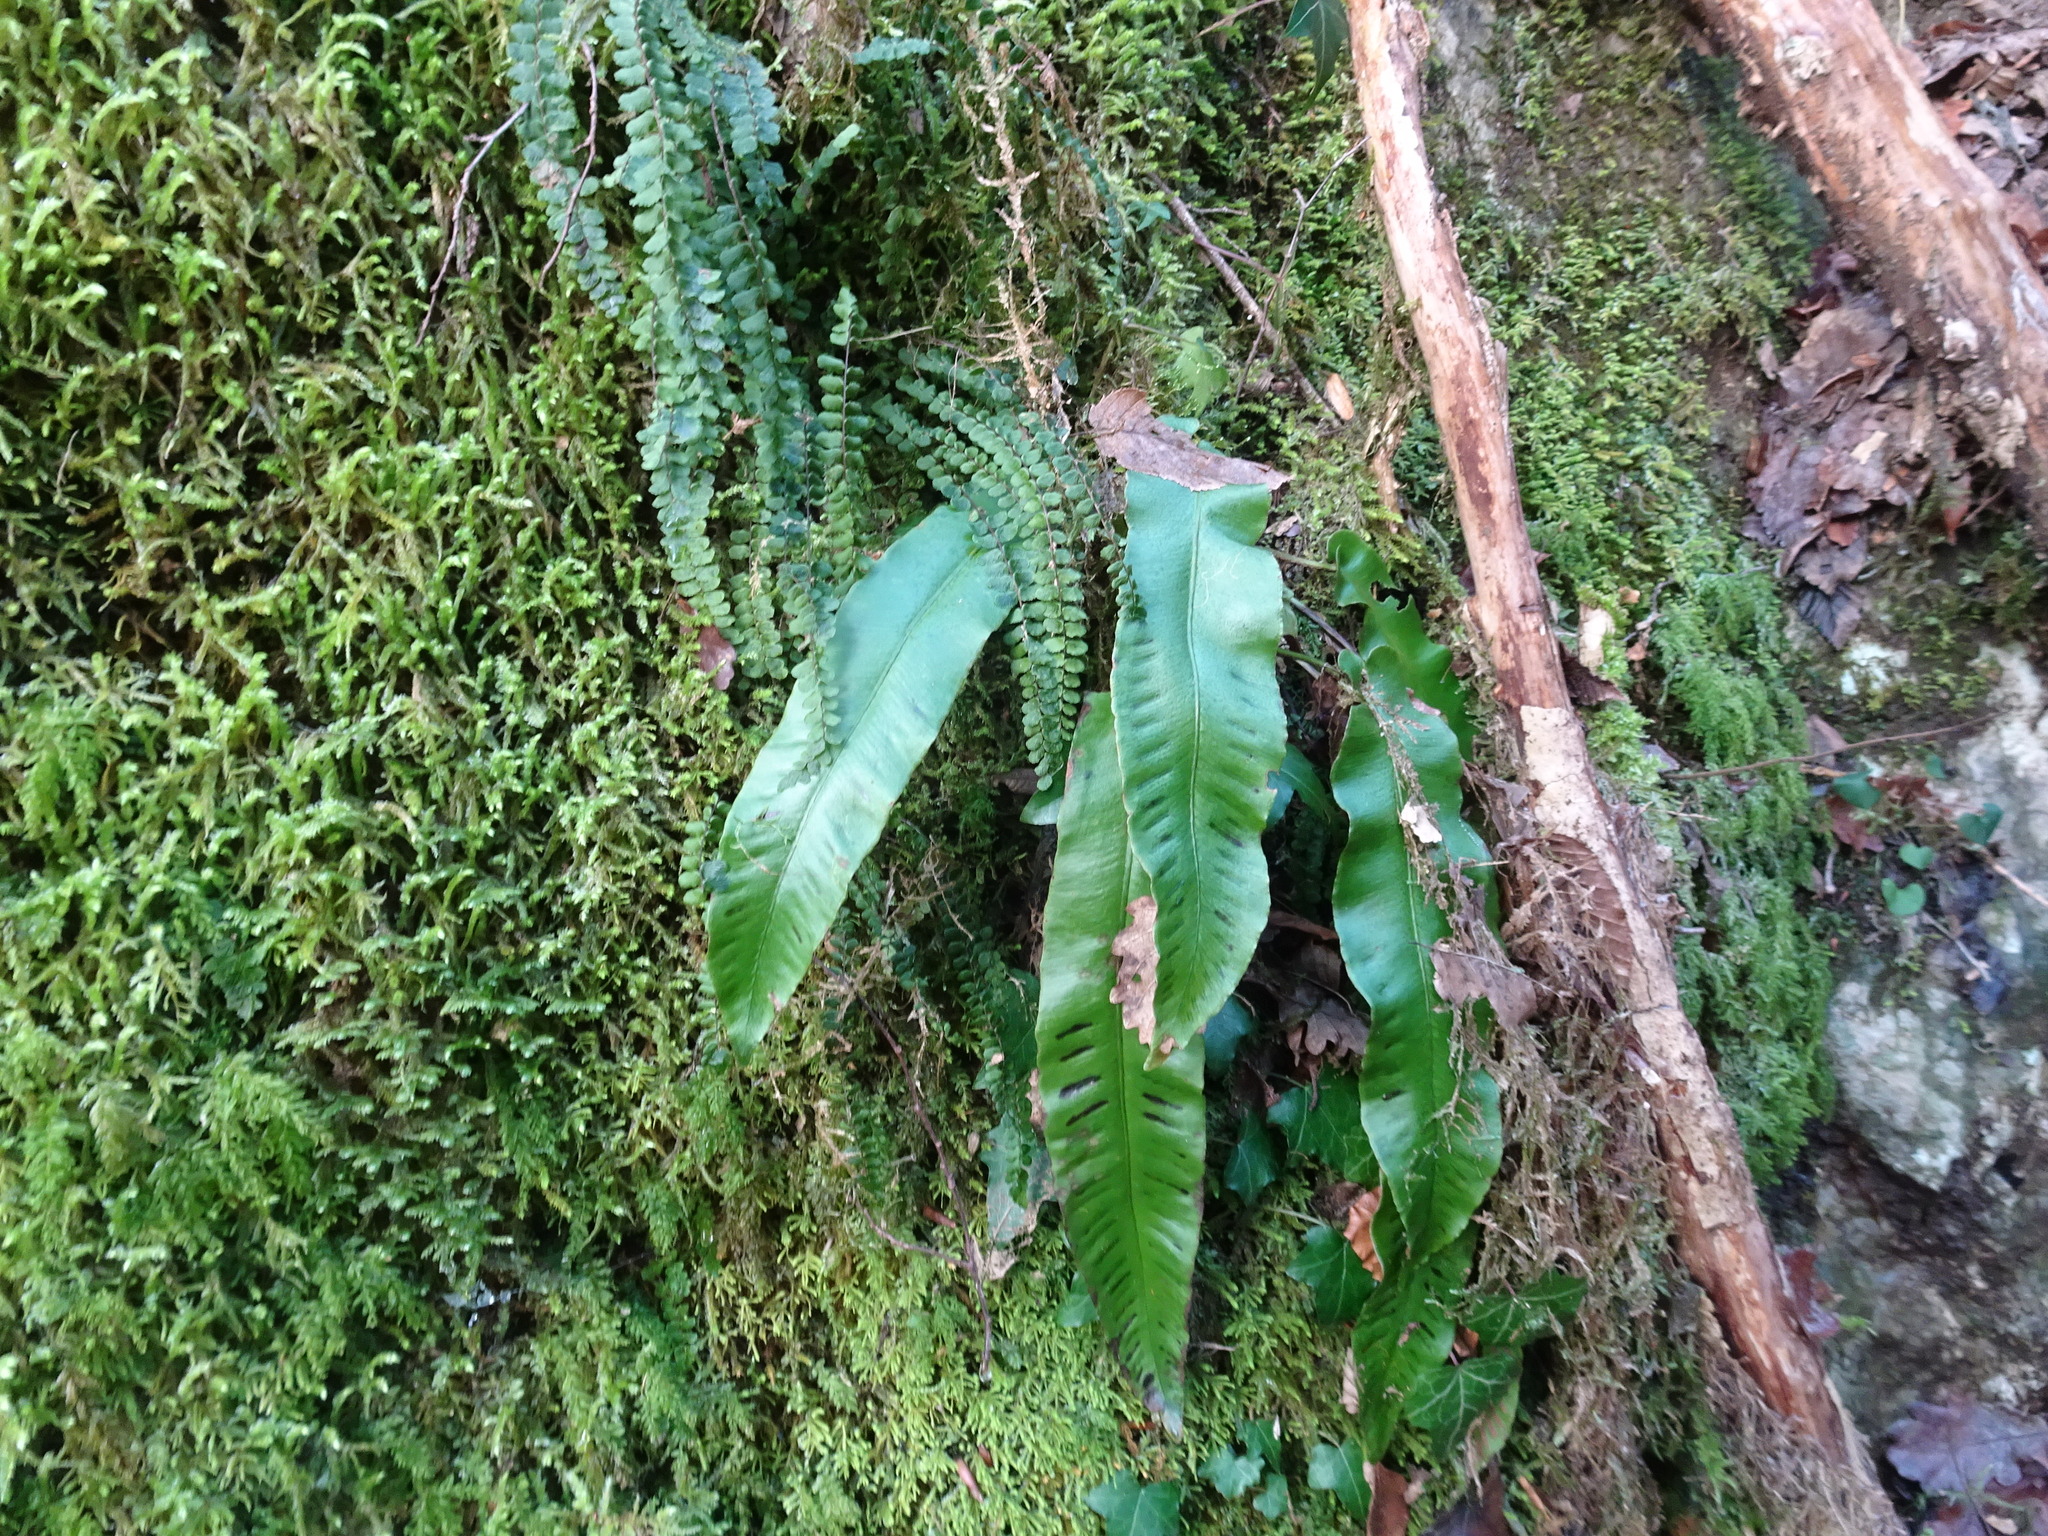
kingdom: Plantae
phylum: Tracheophyta
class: Polypodiopsida
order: Polypodiales
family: Aspleniaceae
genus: Asplenium
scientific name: Asplenium scolopendrium
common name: Hart's-tongue fern
